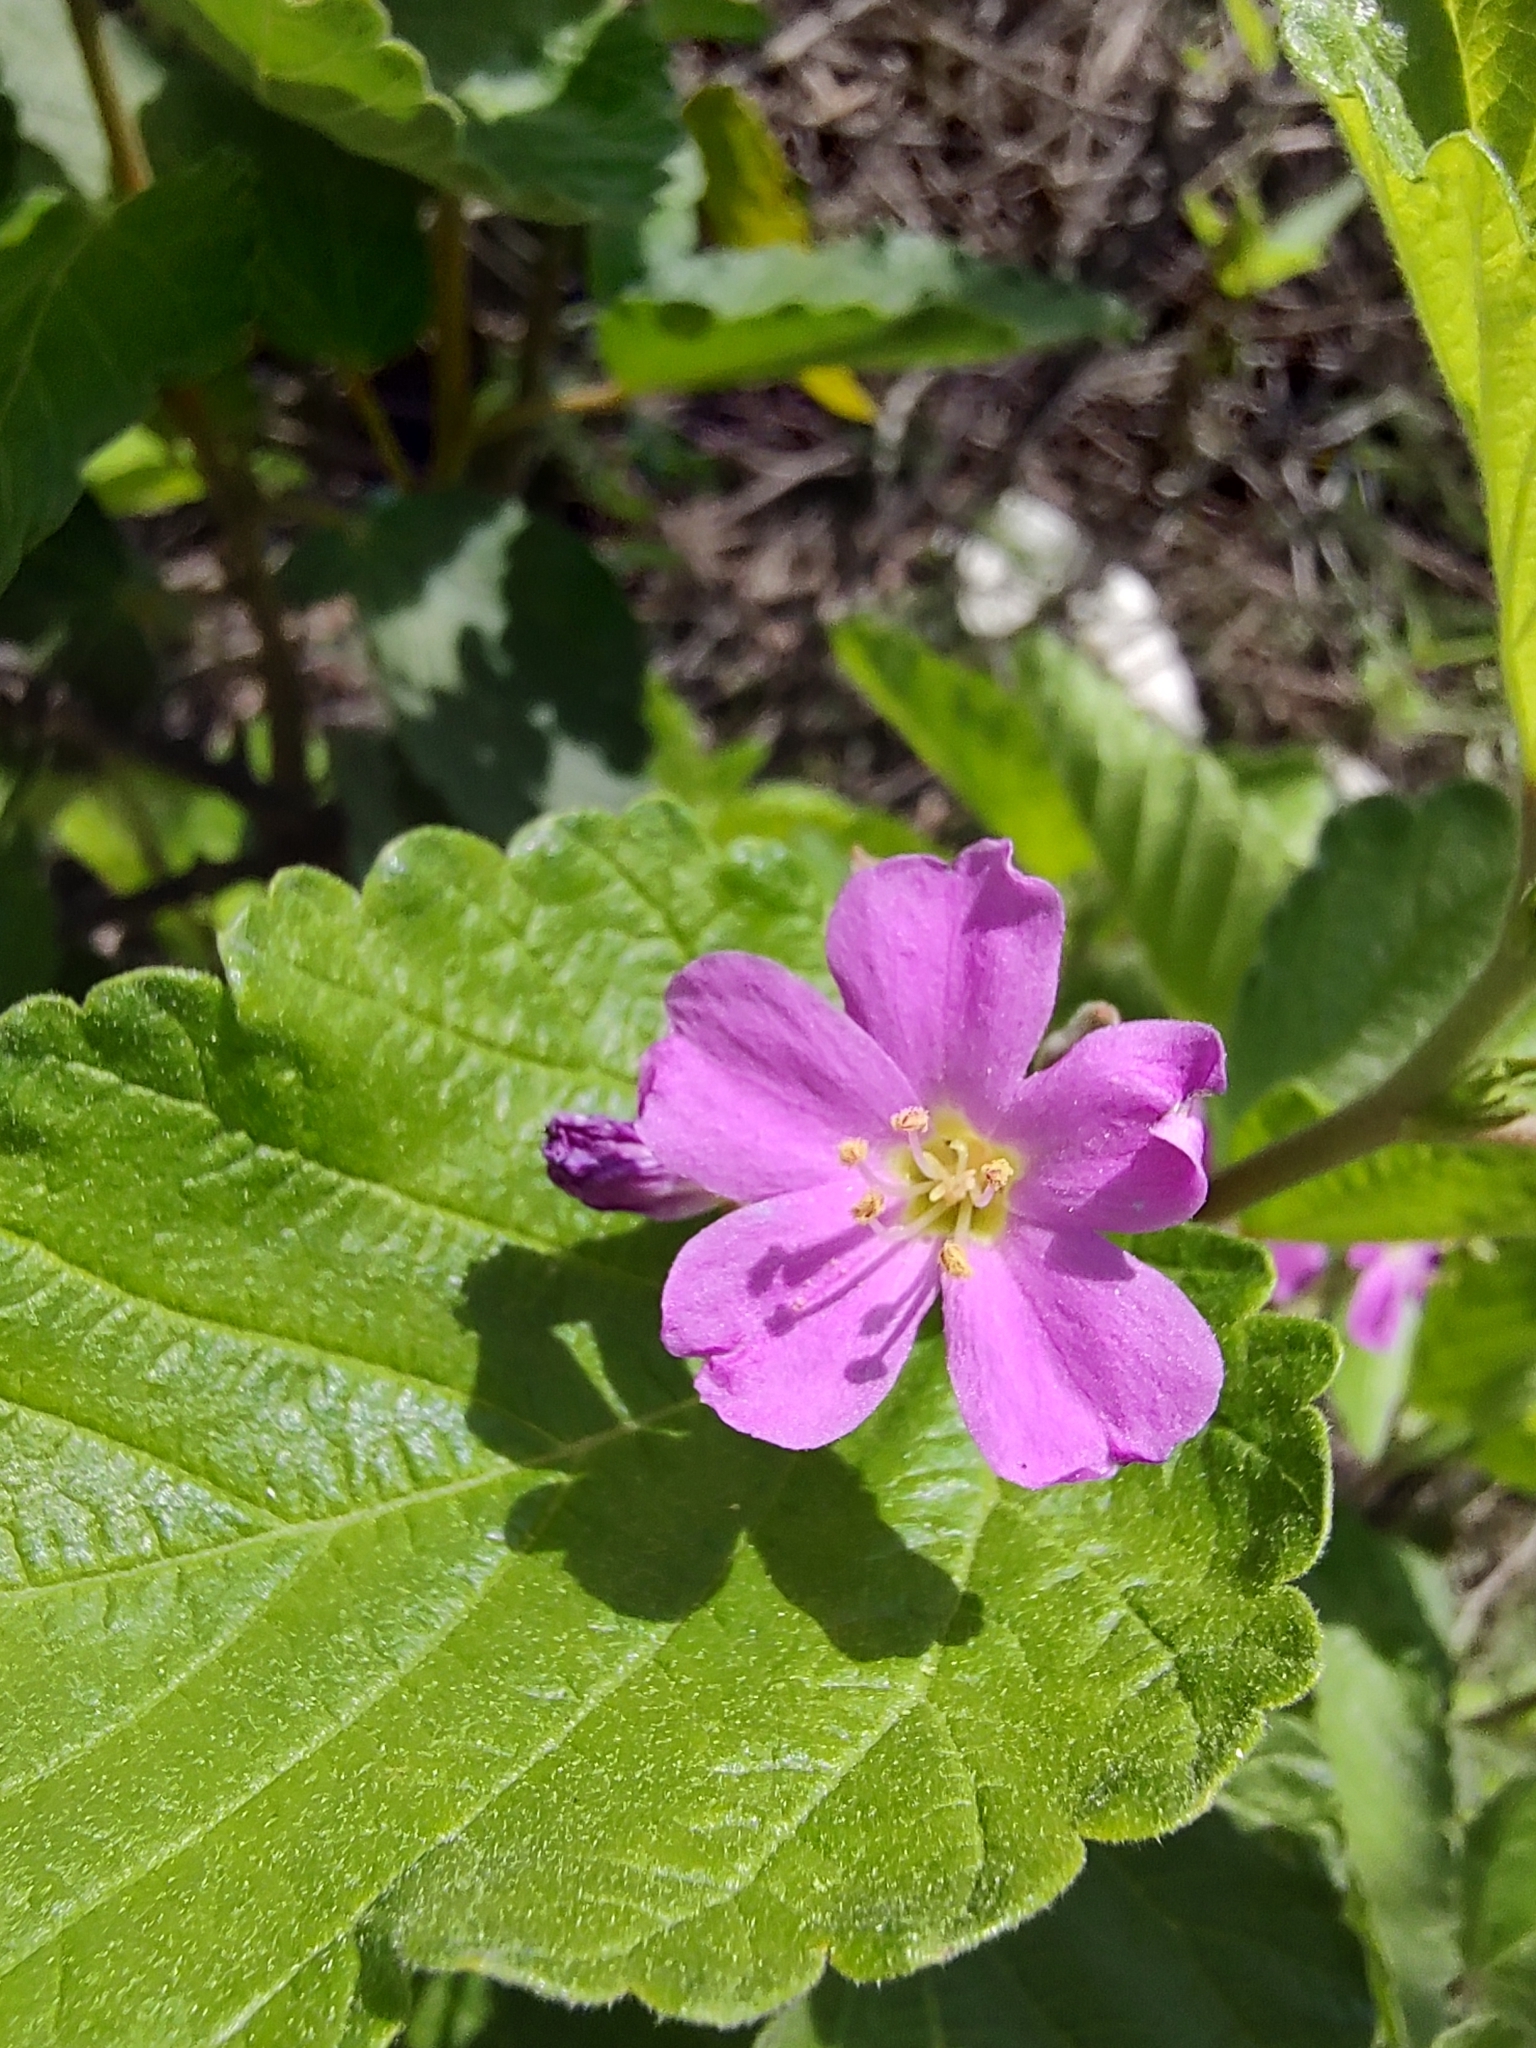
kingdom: Plantae
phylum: Tracheophyta
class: Magnoliopsida
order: Malvales
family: Malvaceae
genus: Melochia
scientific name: Melochia tomentosa
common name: Black torch
